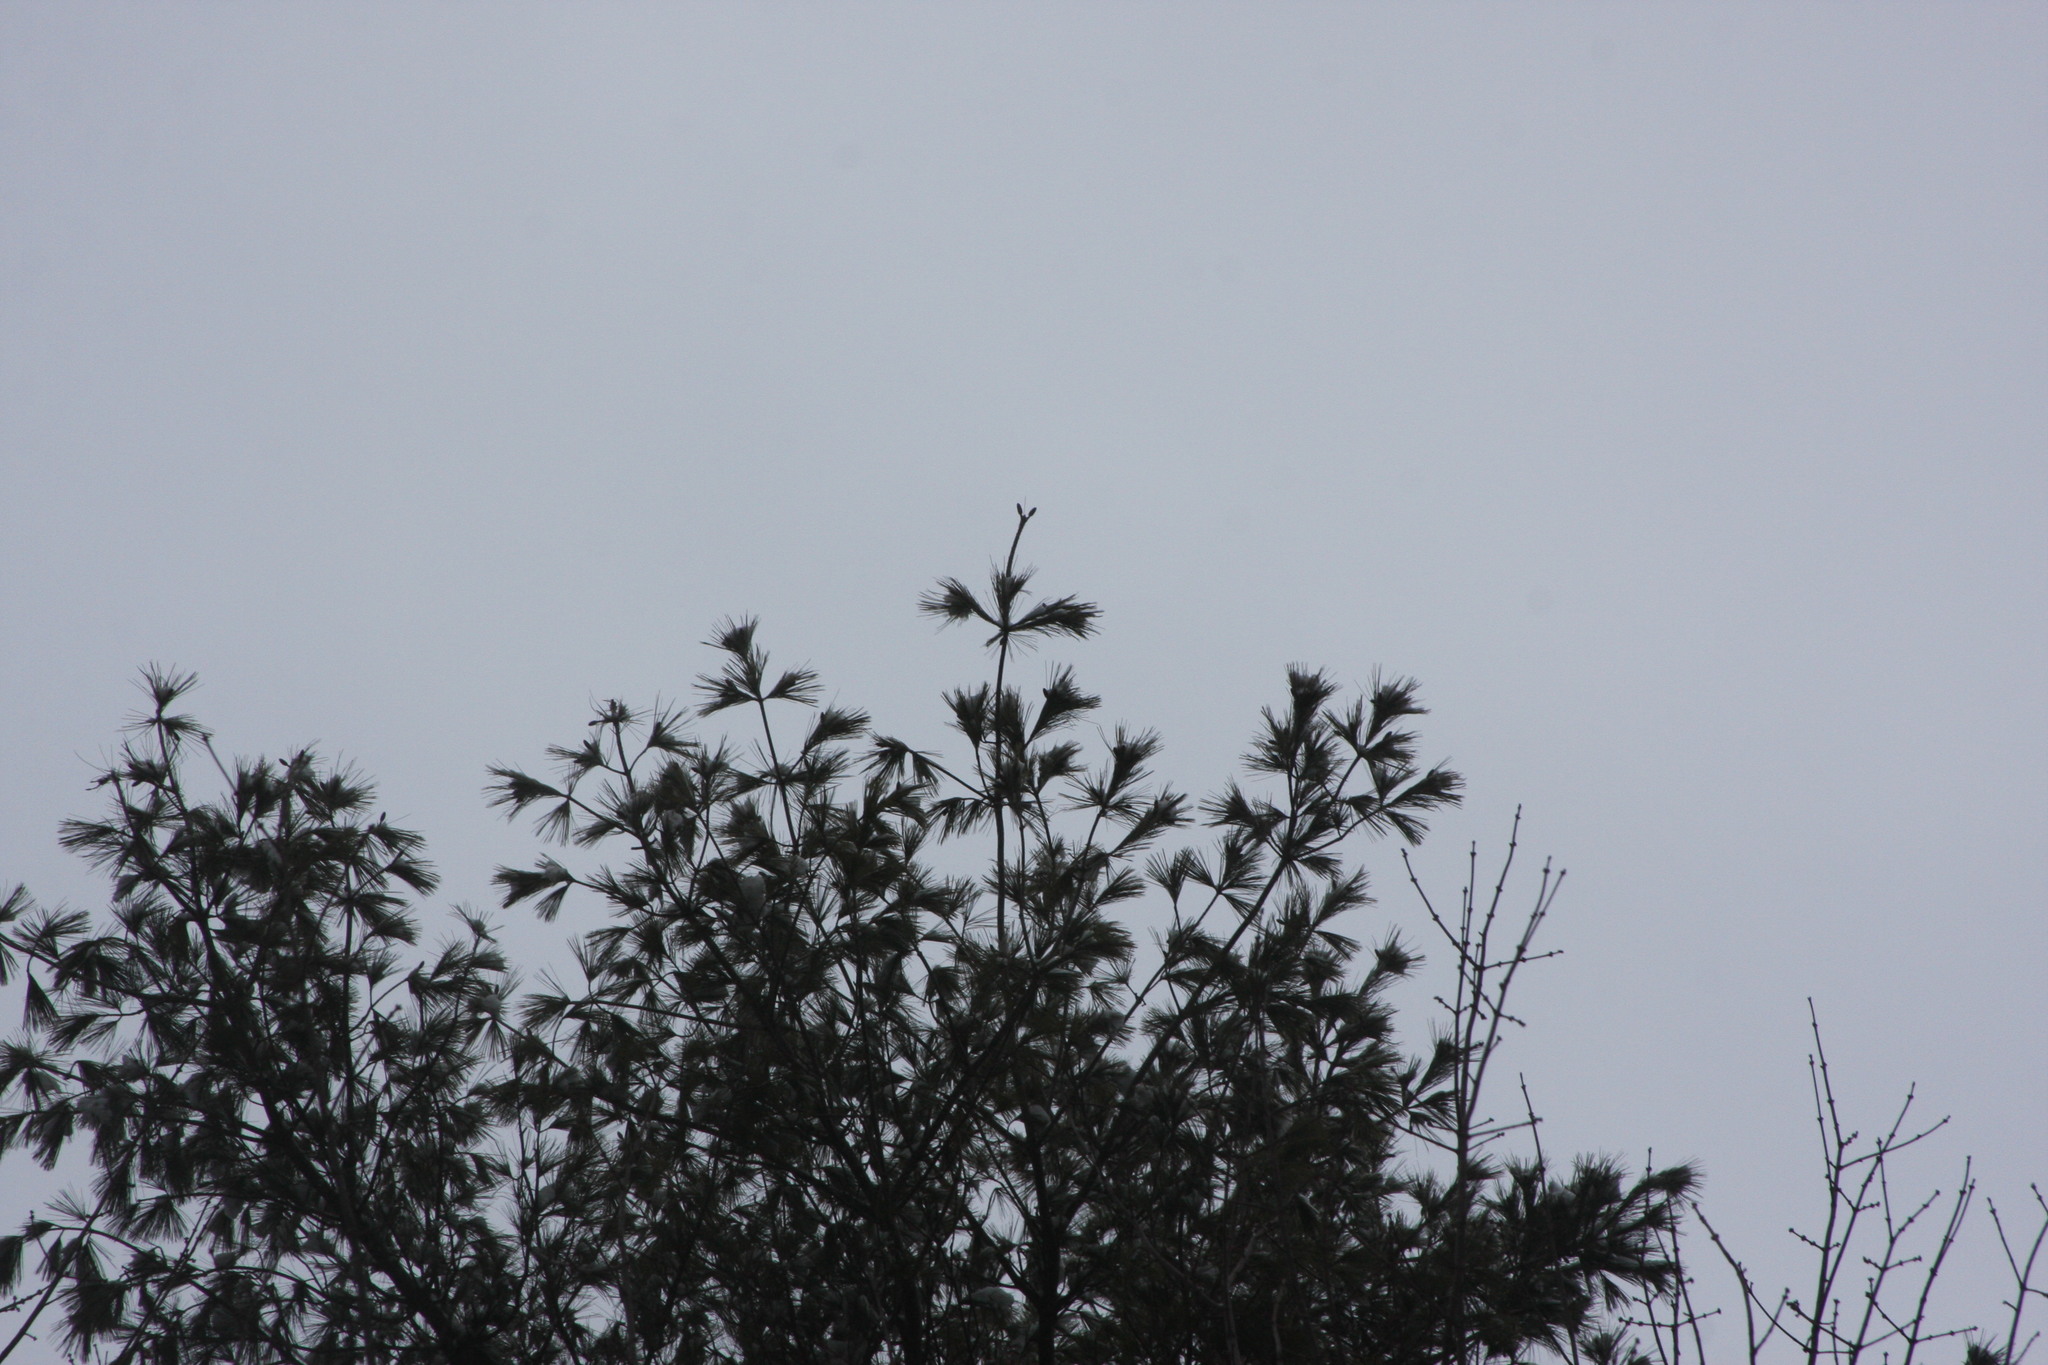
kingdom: Plantae
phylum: Tracheophyta
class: Pinopsida
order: Pinales
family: Pinaceae
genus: Pinus
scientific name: Pinus strobus
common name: Weymouth pine
